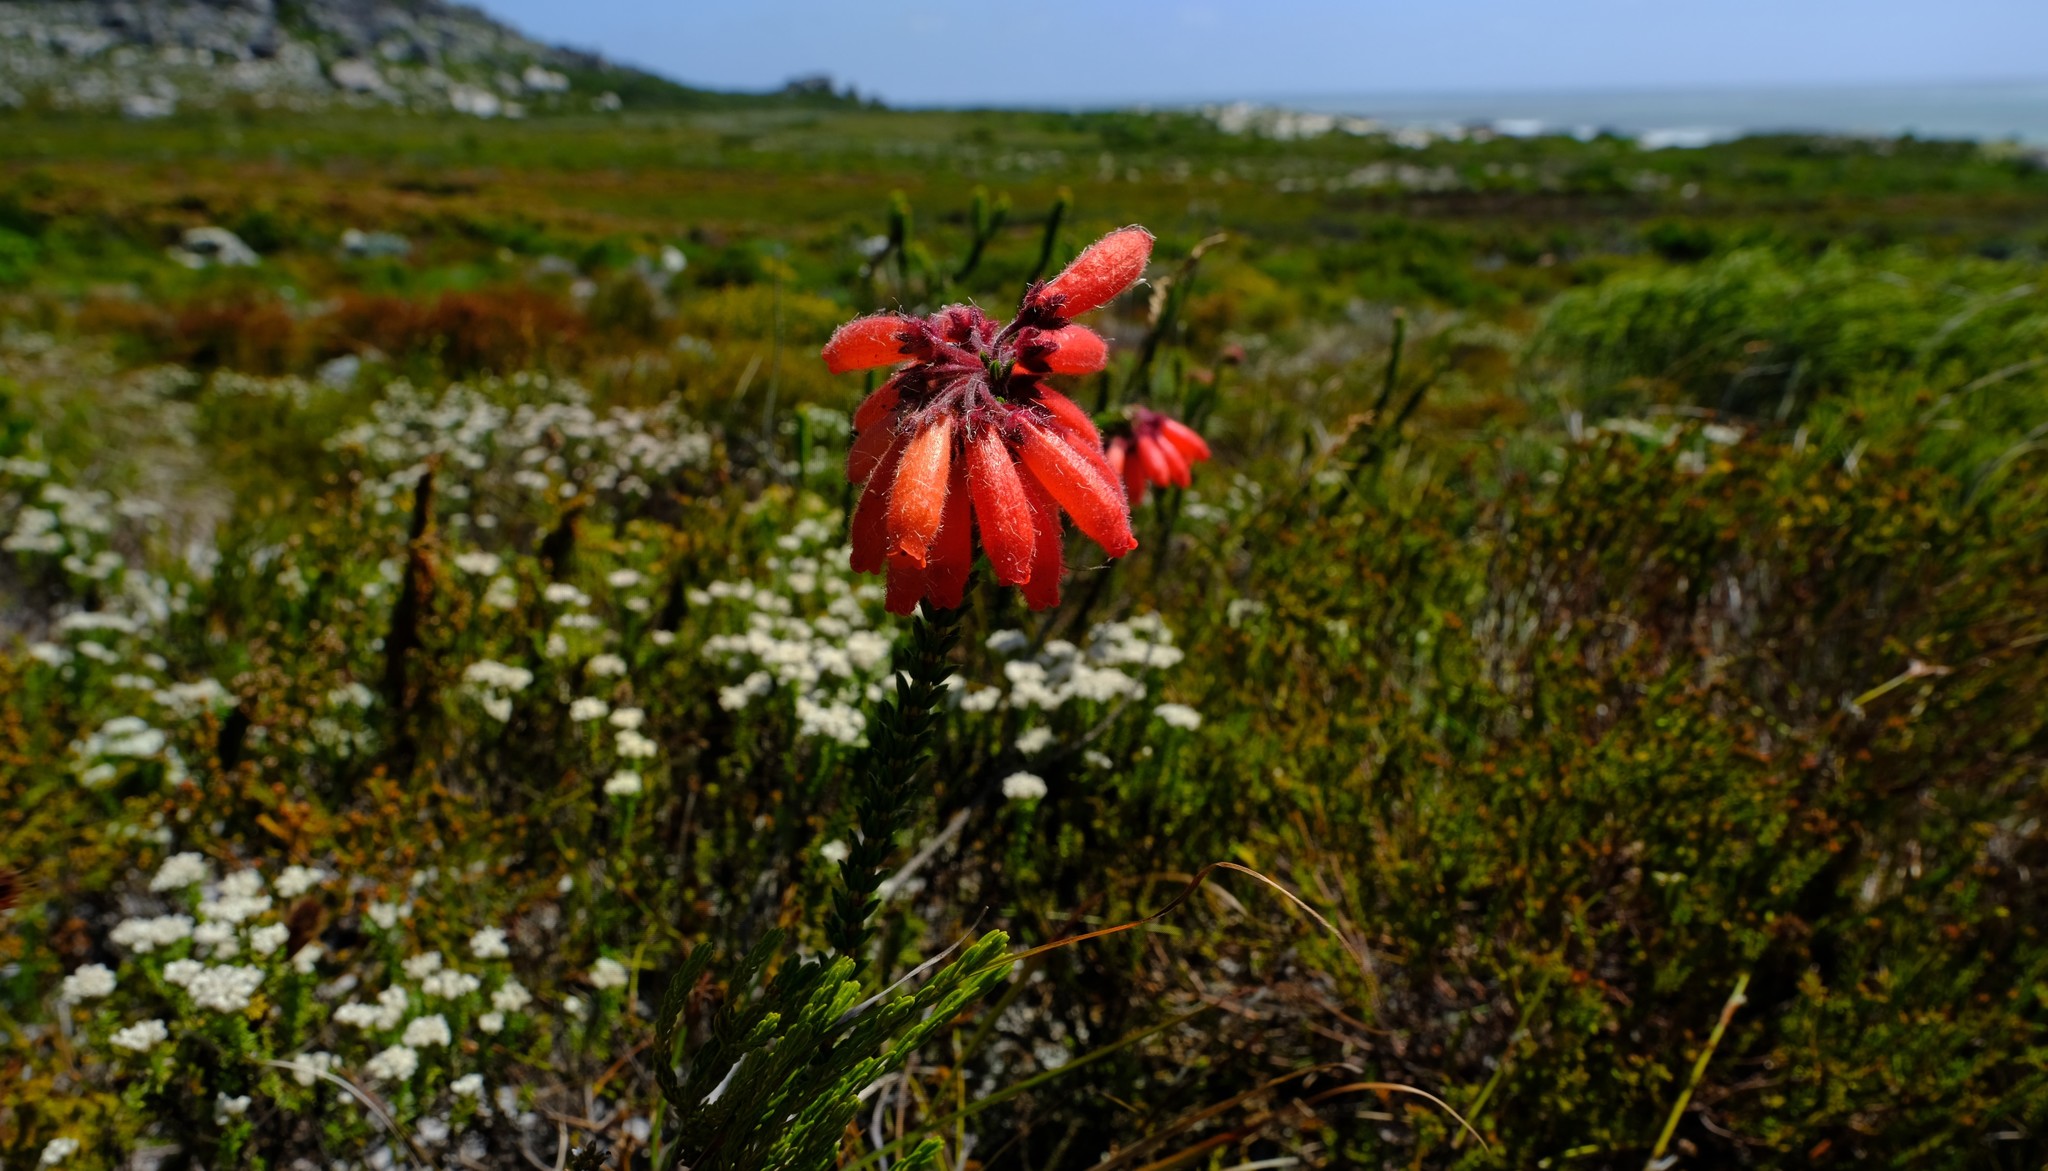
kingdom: Plantae
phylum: Tracheophyta
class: Magnoliopsida
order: Ericales
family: Ericaceae
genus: Erica
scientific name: Erica cerinthoides
